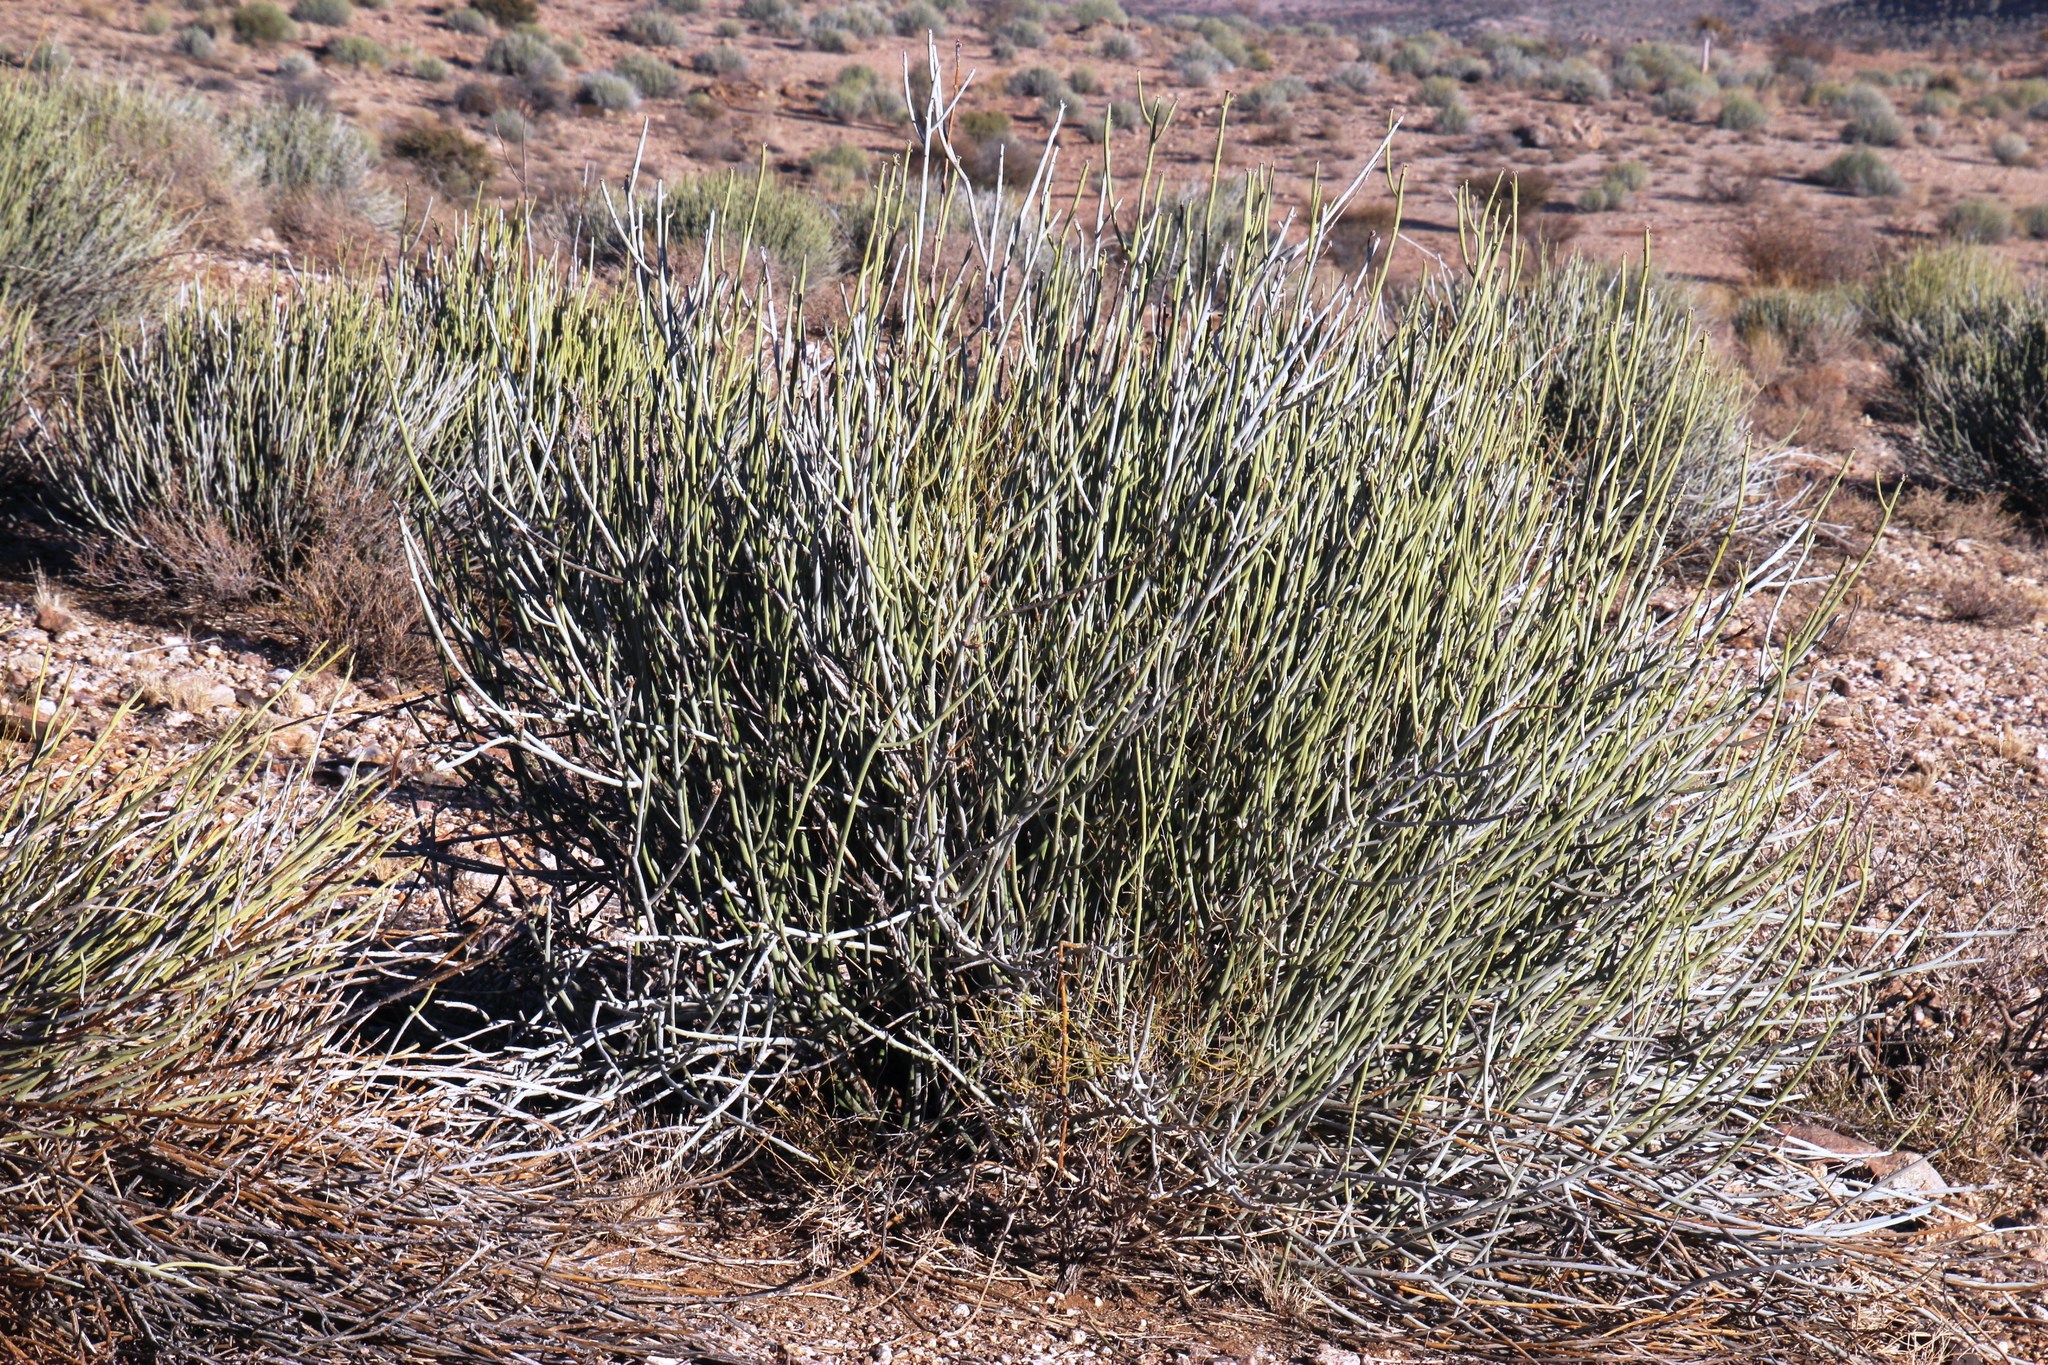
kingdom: Plantae
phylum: Tracheophyta
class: Magnoliopsida
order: Malpighiales
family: Euphorbiaceae
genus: Euphorbia
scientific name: Euphorbia gregaria
